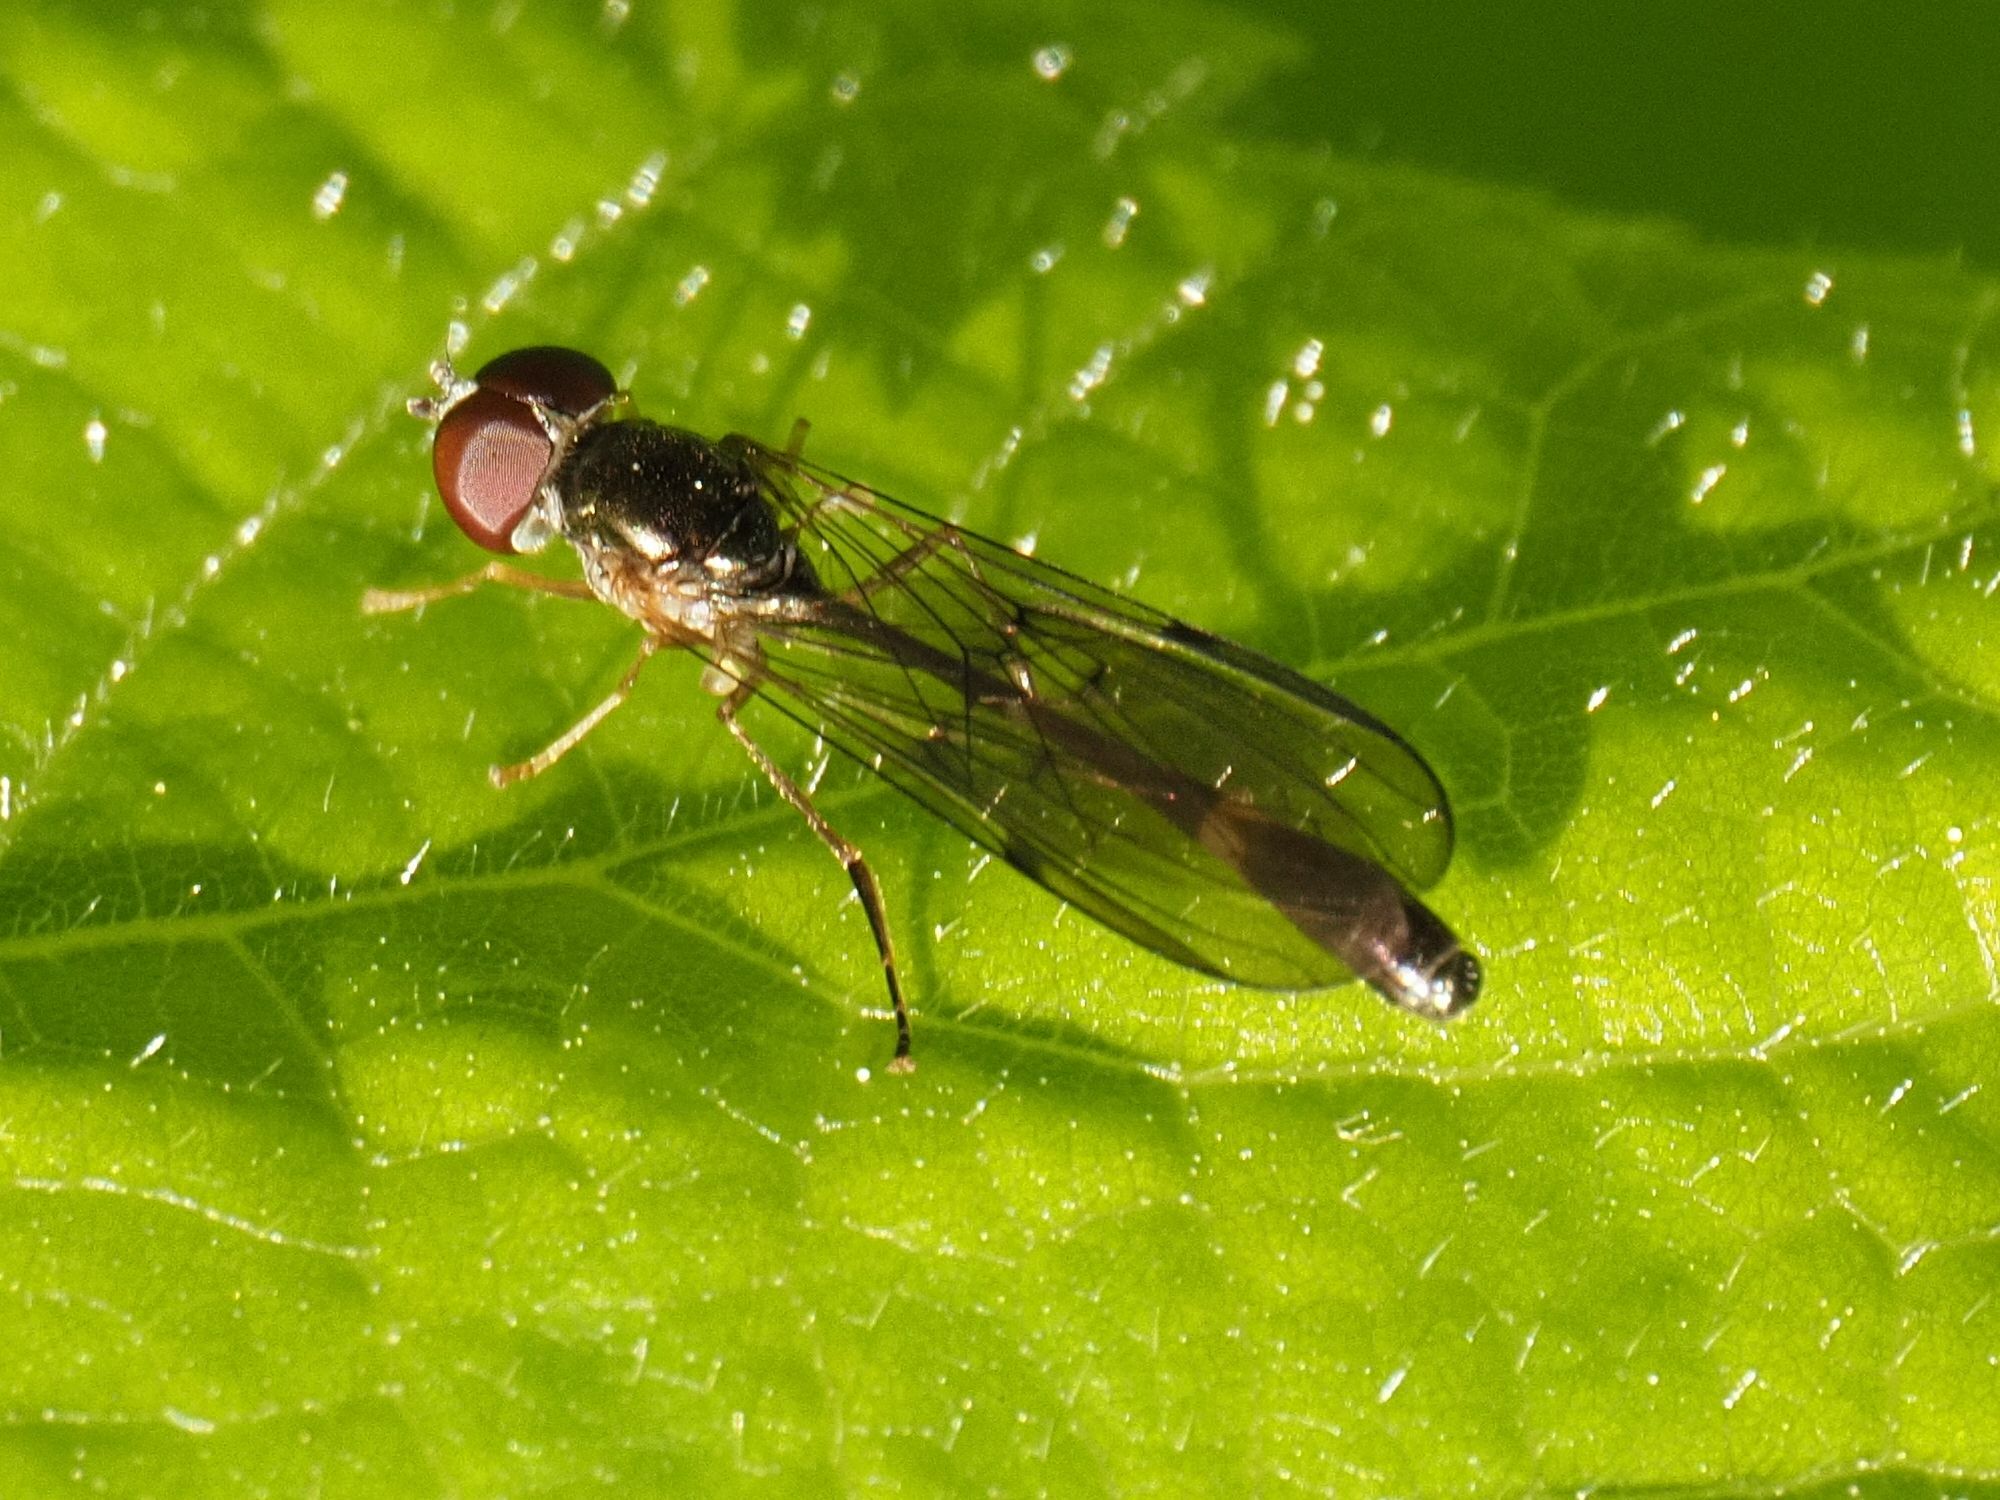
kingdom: Animalia
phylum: Arthropoda
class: Insecta
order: Diptera
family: Syrphidae
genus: Baccha
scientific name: Baccha elongata
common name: Common dainty
